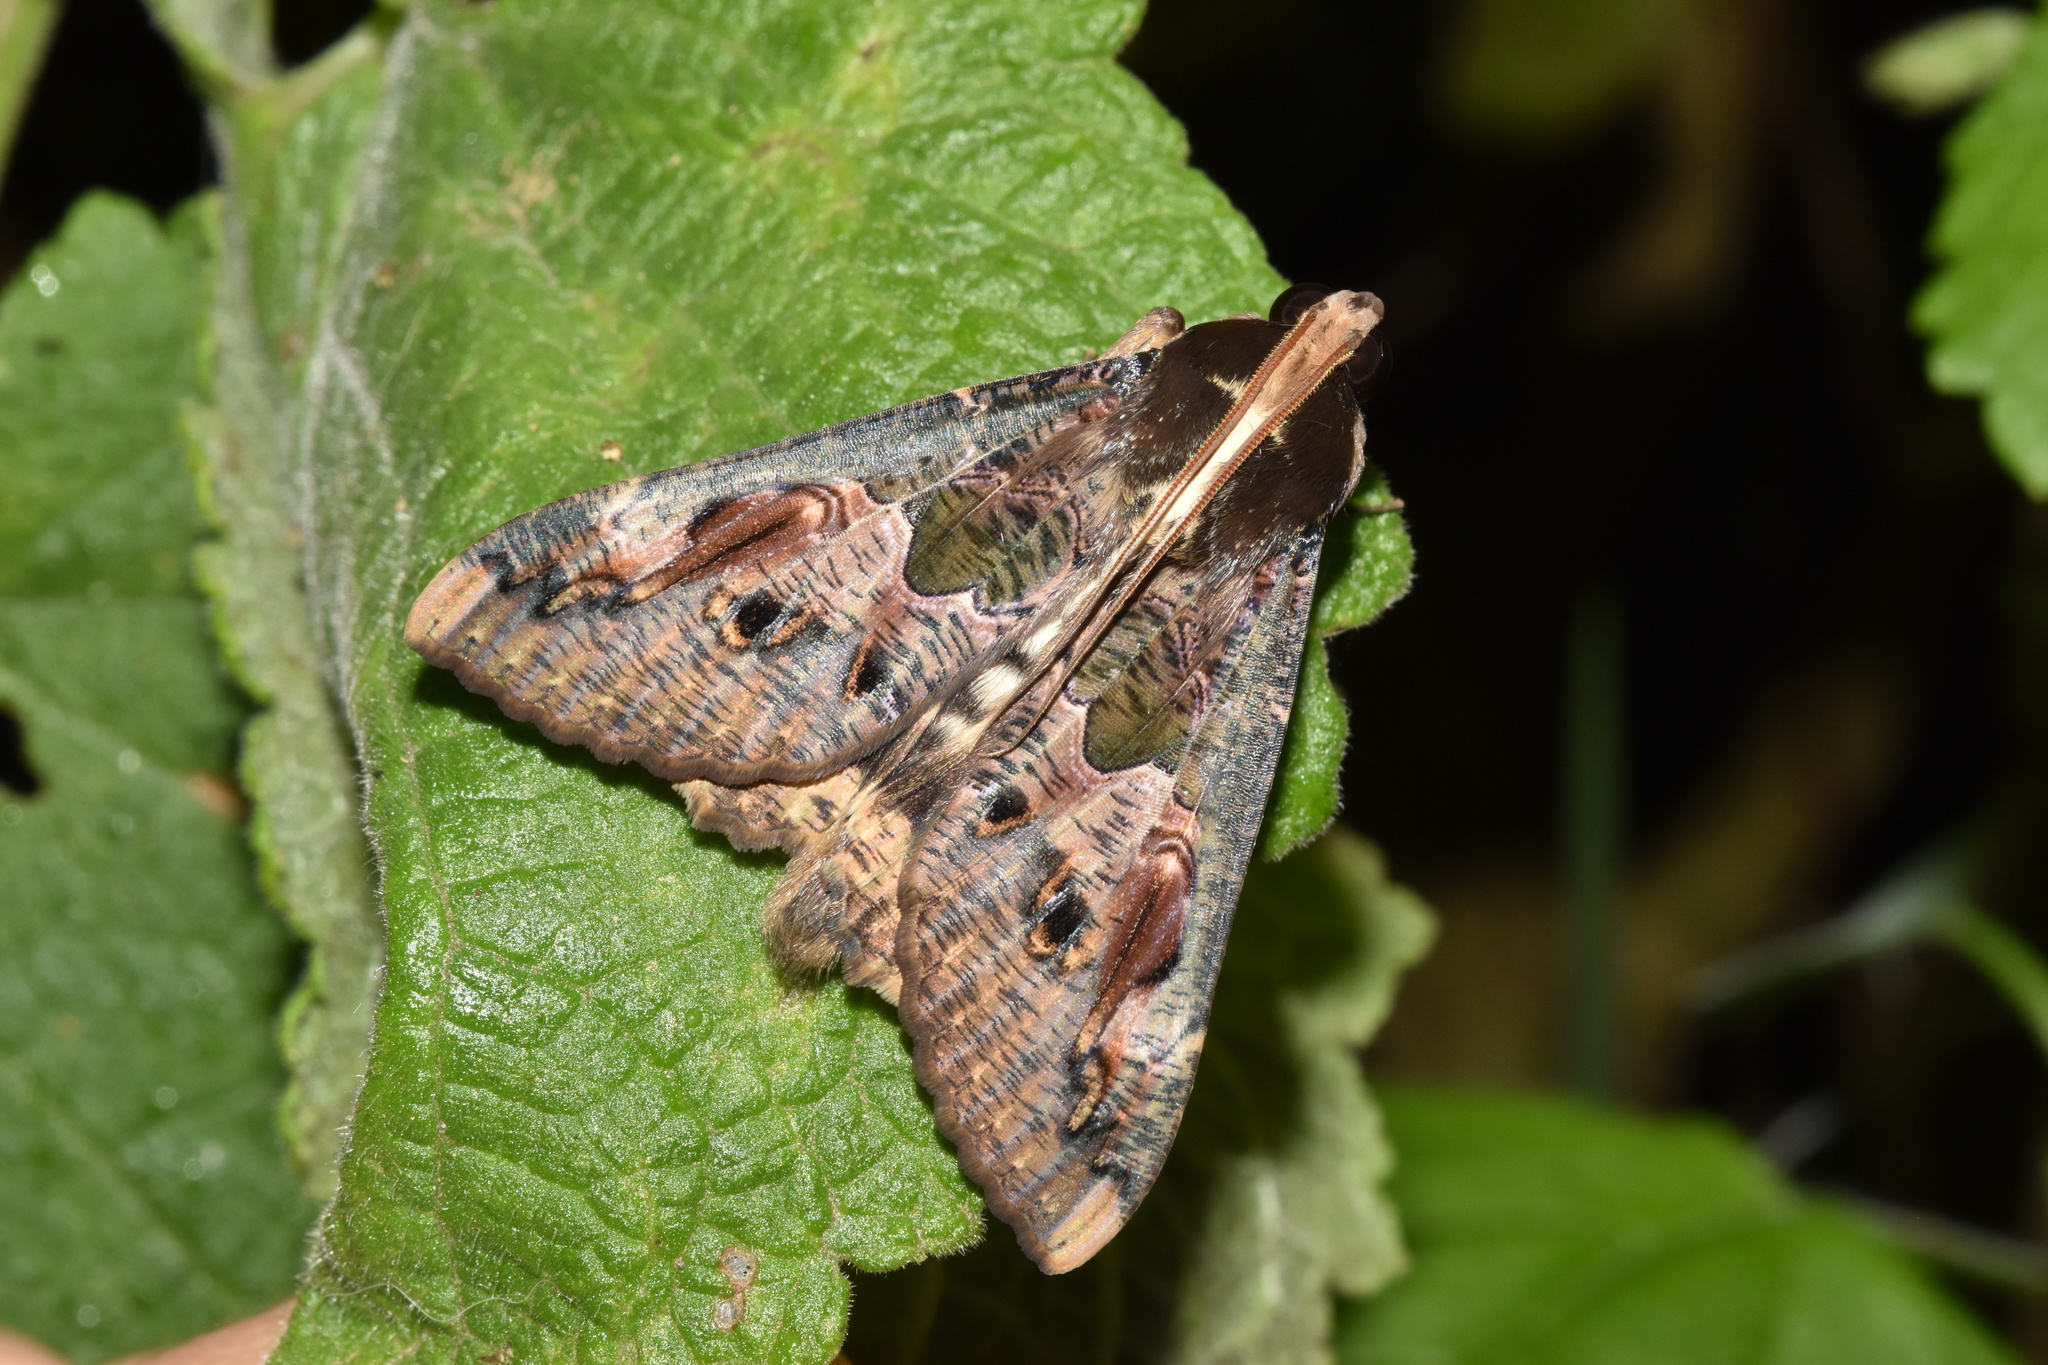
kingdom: Animalia
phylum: Arthropoda
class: Insecta
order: Lepidoptera
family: Erebidae
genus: Sphingomorpha
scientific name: Sphingomorpha chlorea
